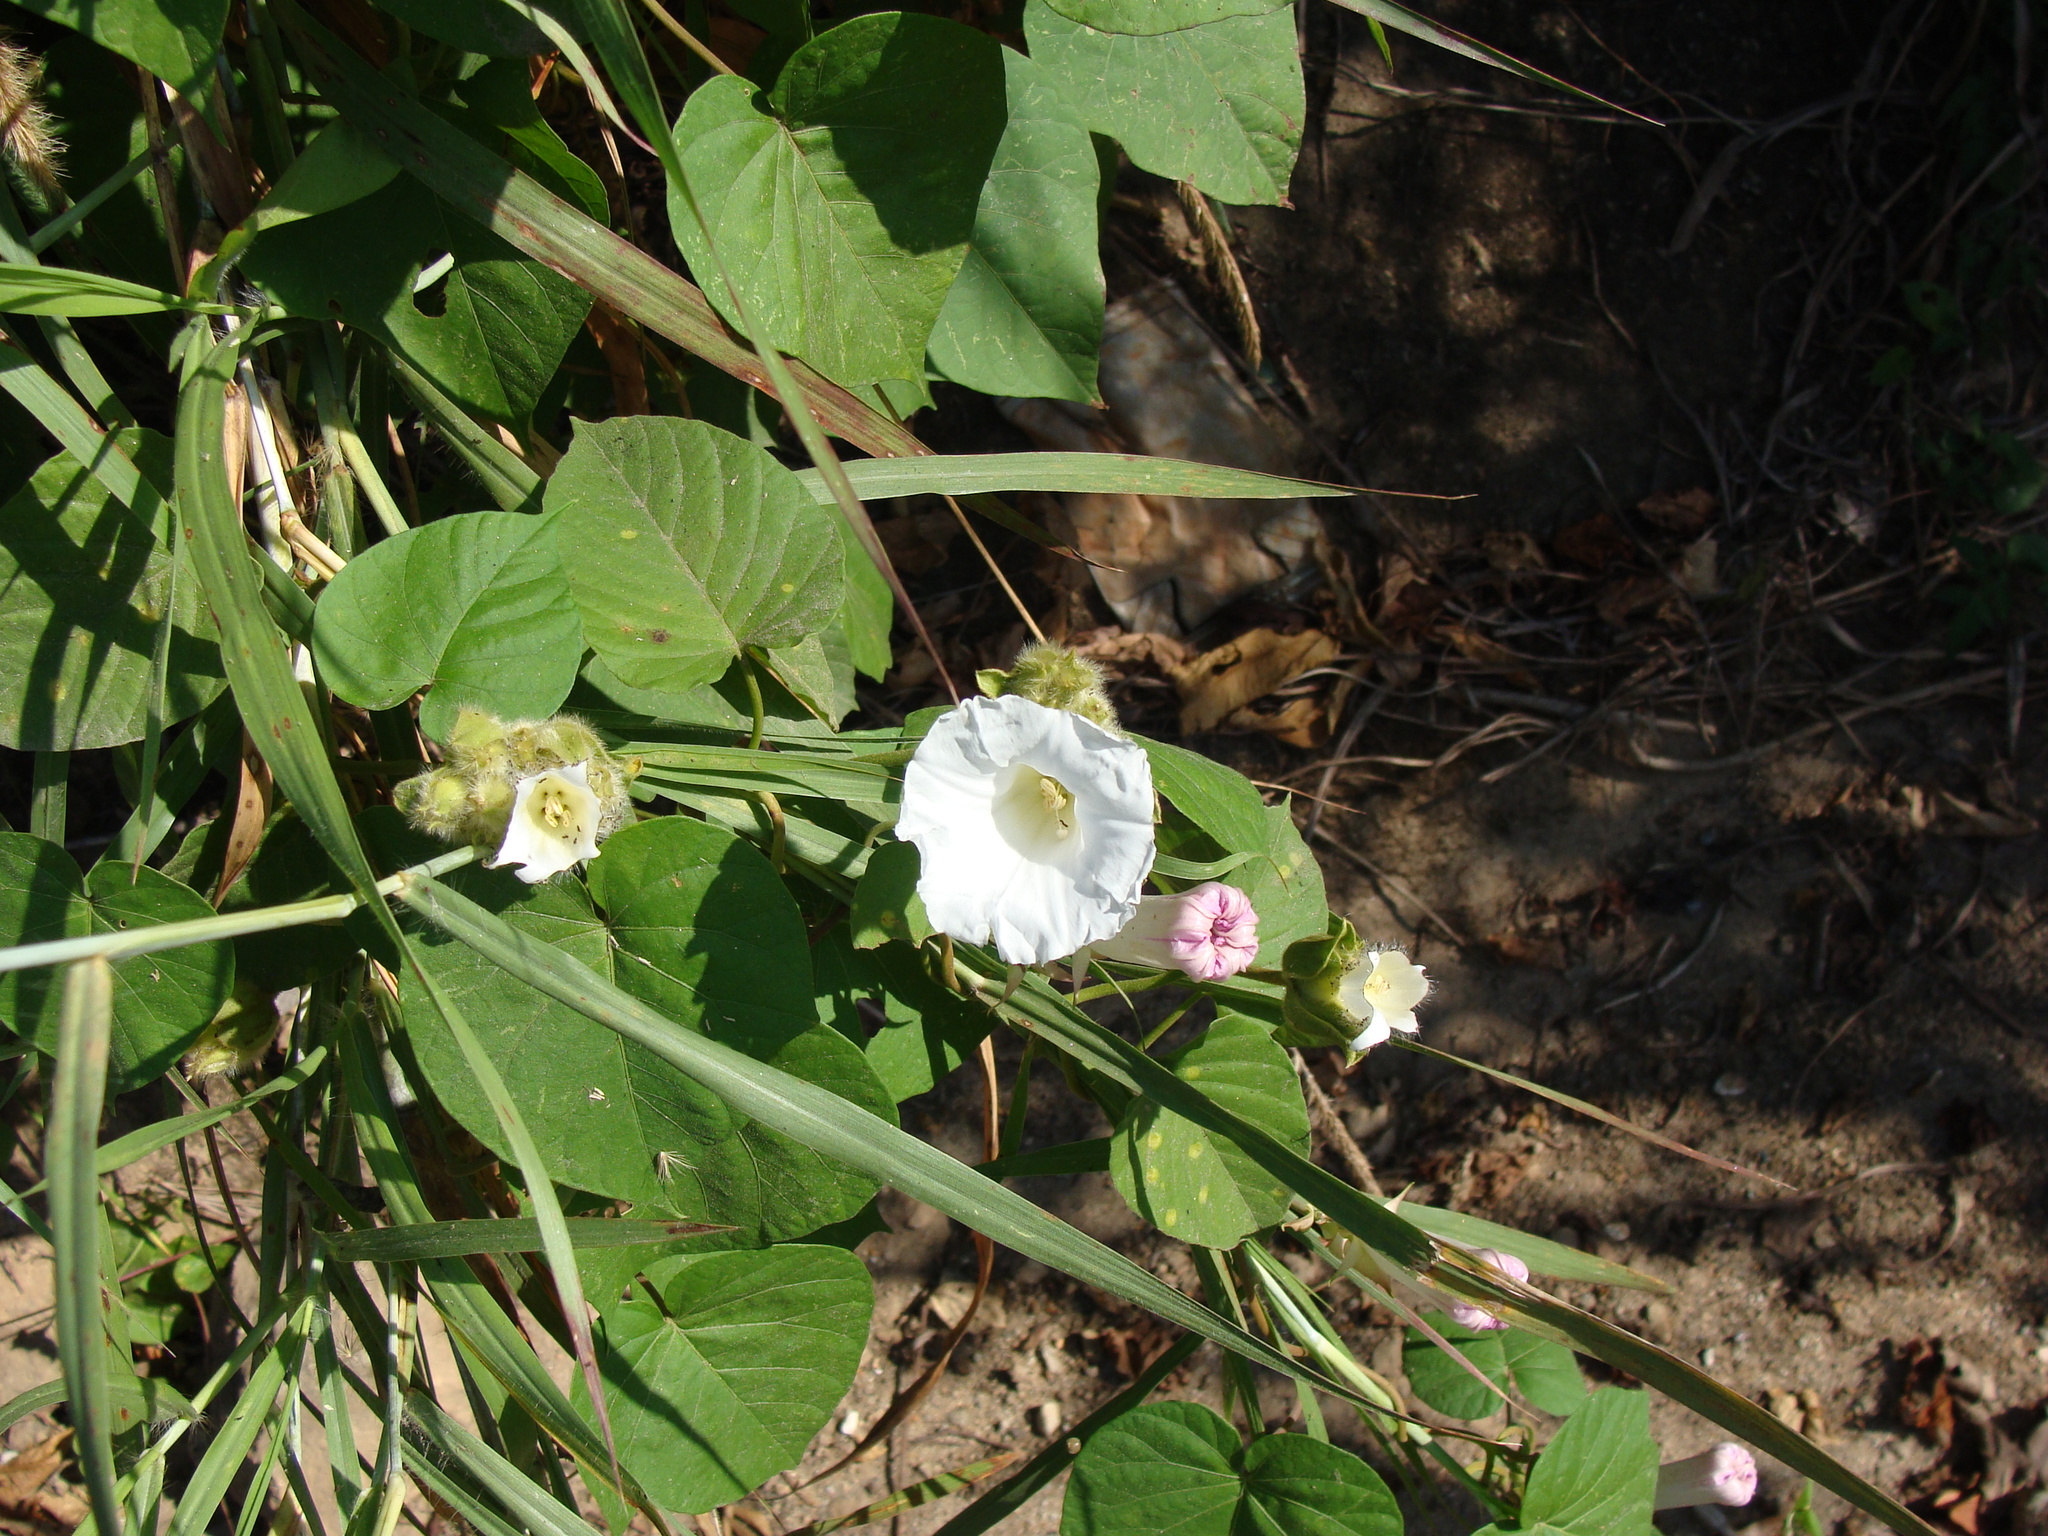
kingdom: Plantae
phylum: Tracheophyta
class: Magnoliopsida
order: Solanales
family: Convolvulaceae
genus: Odonellia
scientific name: Odonellia hirtiflora
